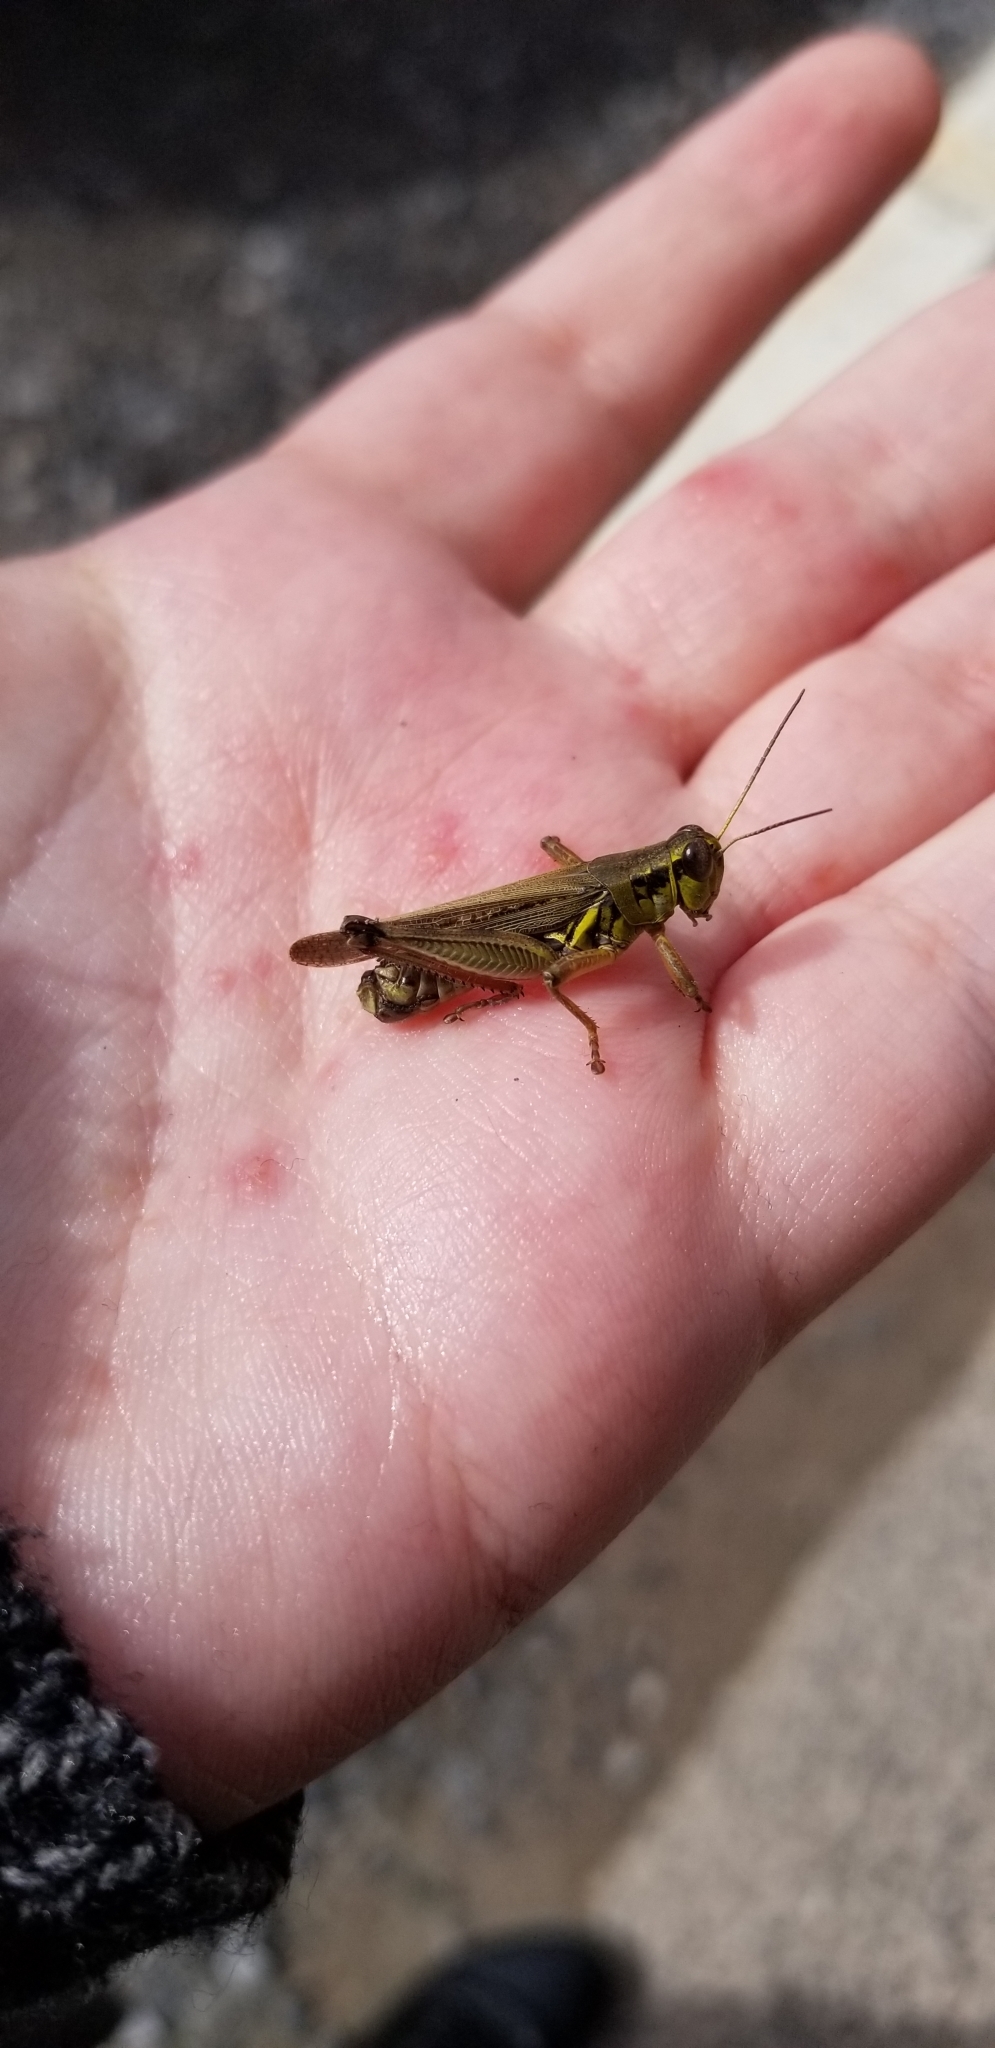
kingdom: Animalia
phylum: Arthropoda
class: Insecta
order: Orthoptera
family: Acrididae
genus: Melanoplus
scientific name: Melanoplus femurrubrum
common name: Red-legged grasshopper
